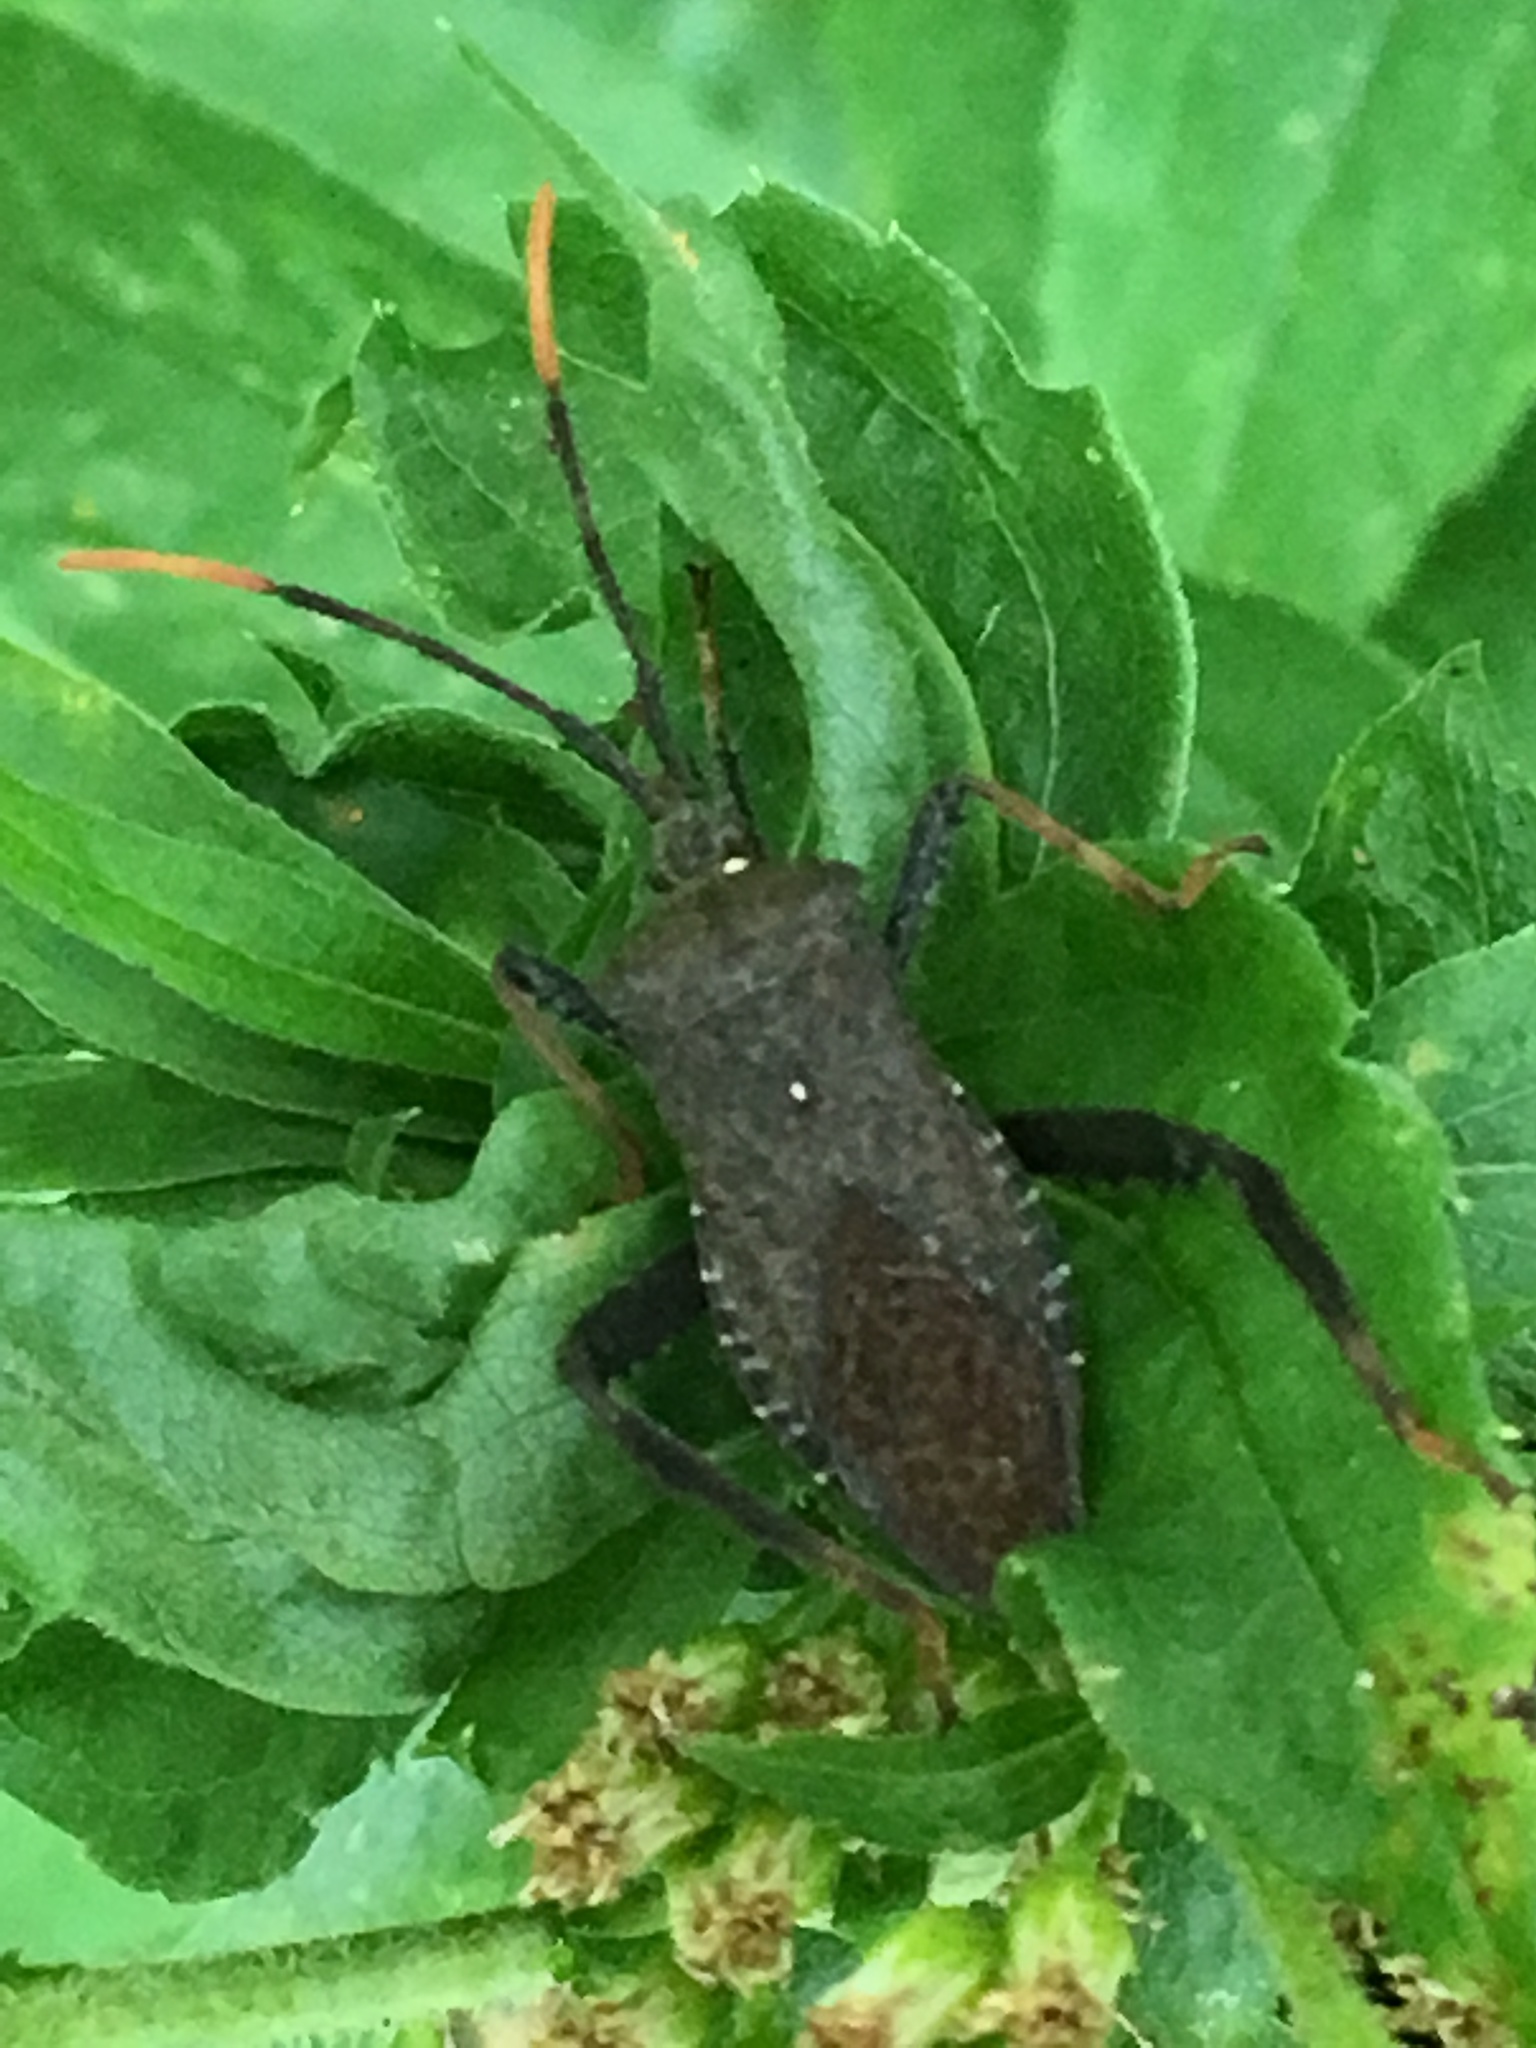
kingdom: Animalia
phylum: Arthropoda
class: Insecta
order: Hemiptera
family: Coreidae
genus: Acanthocephala
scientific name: Acanthocephala terminalis
